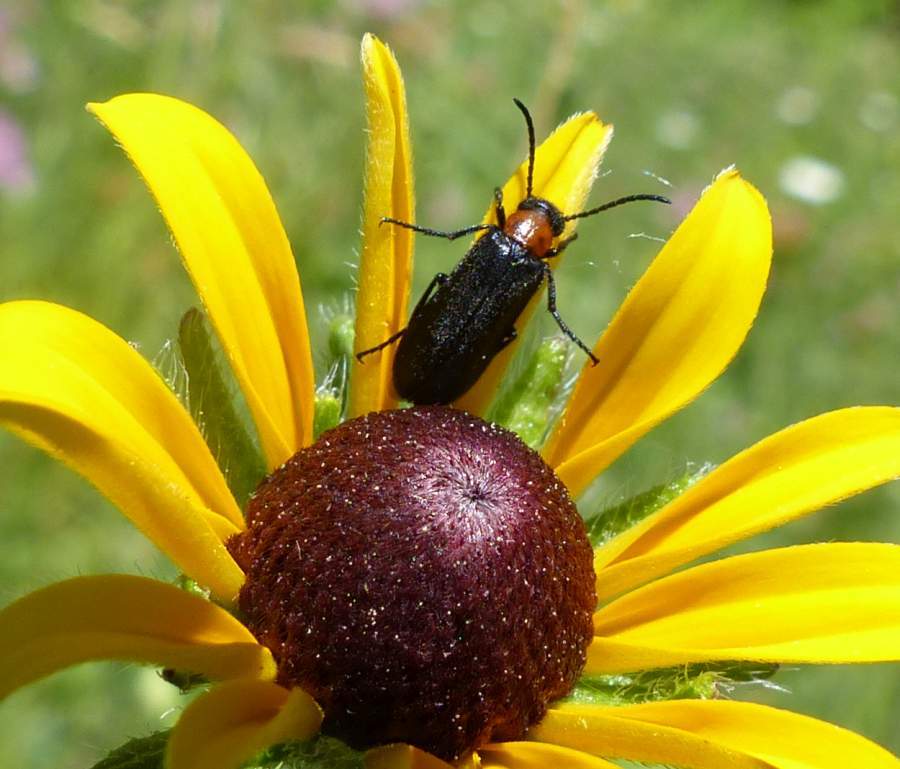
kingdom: Animalia
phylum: Arthropoda
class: Insecta
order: Coleoptera
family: Meloidae
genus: Nemognatha
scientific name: Nemognatha nemorensis
